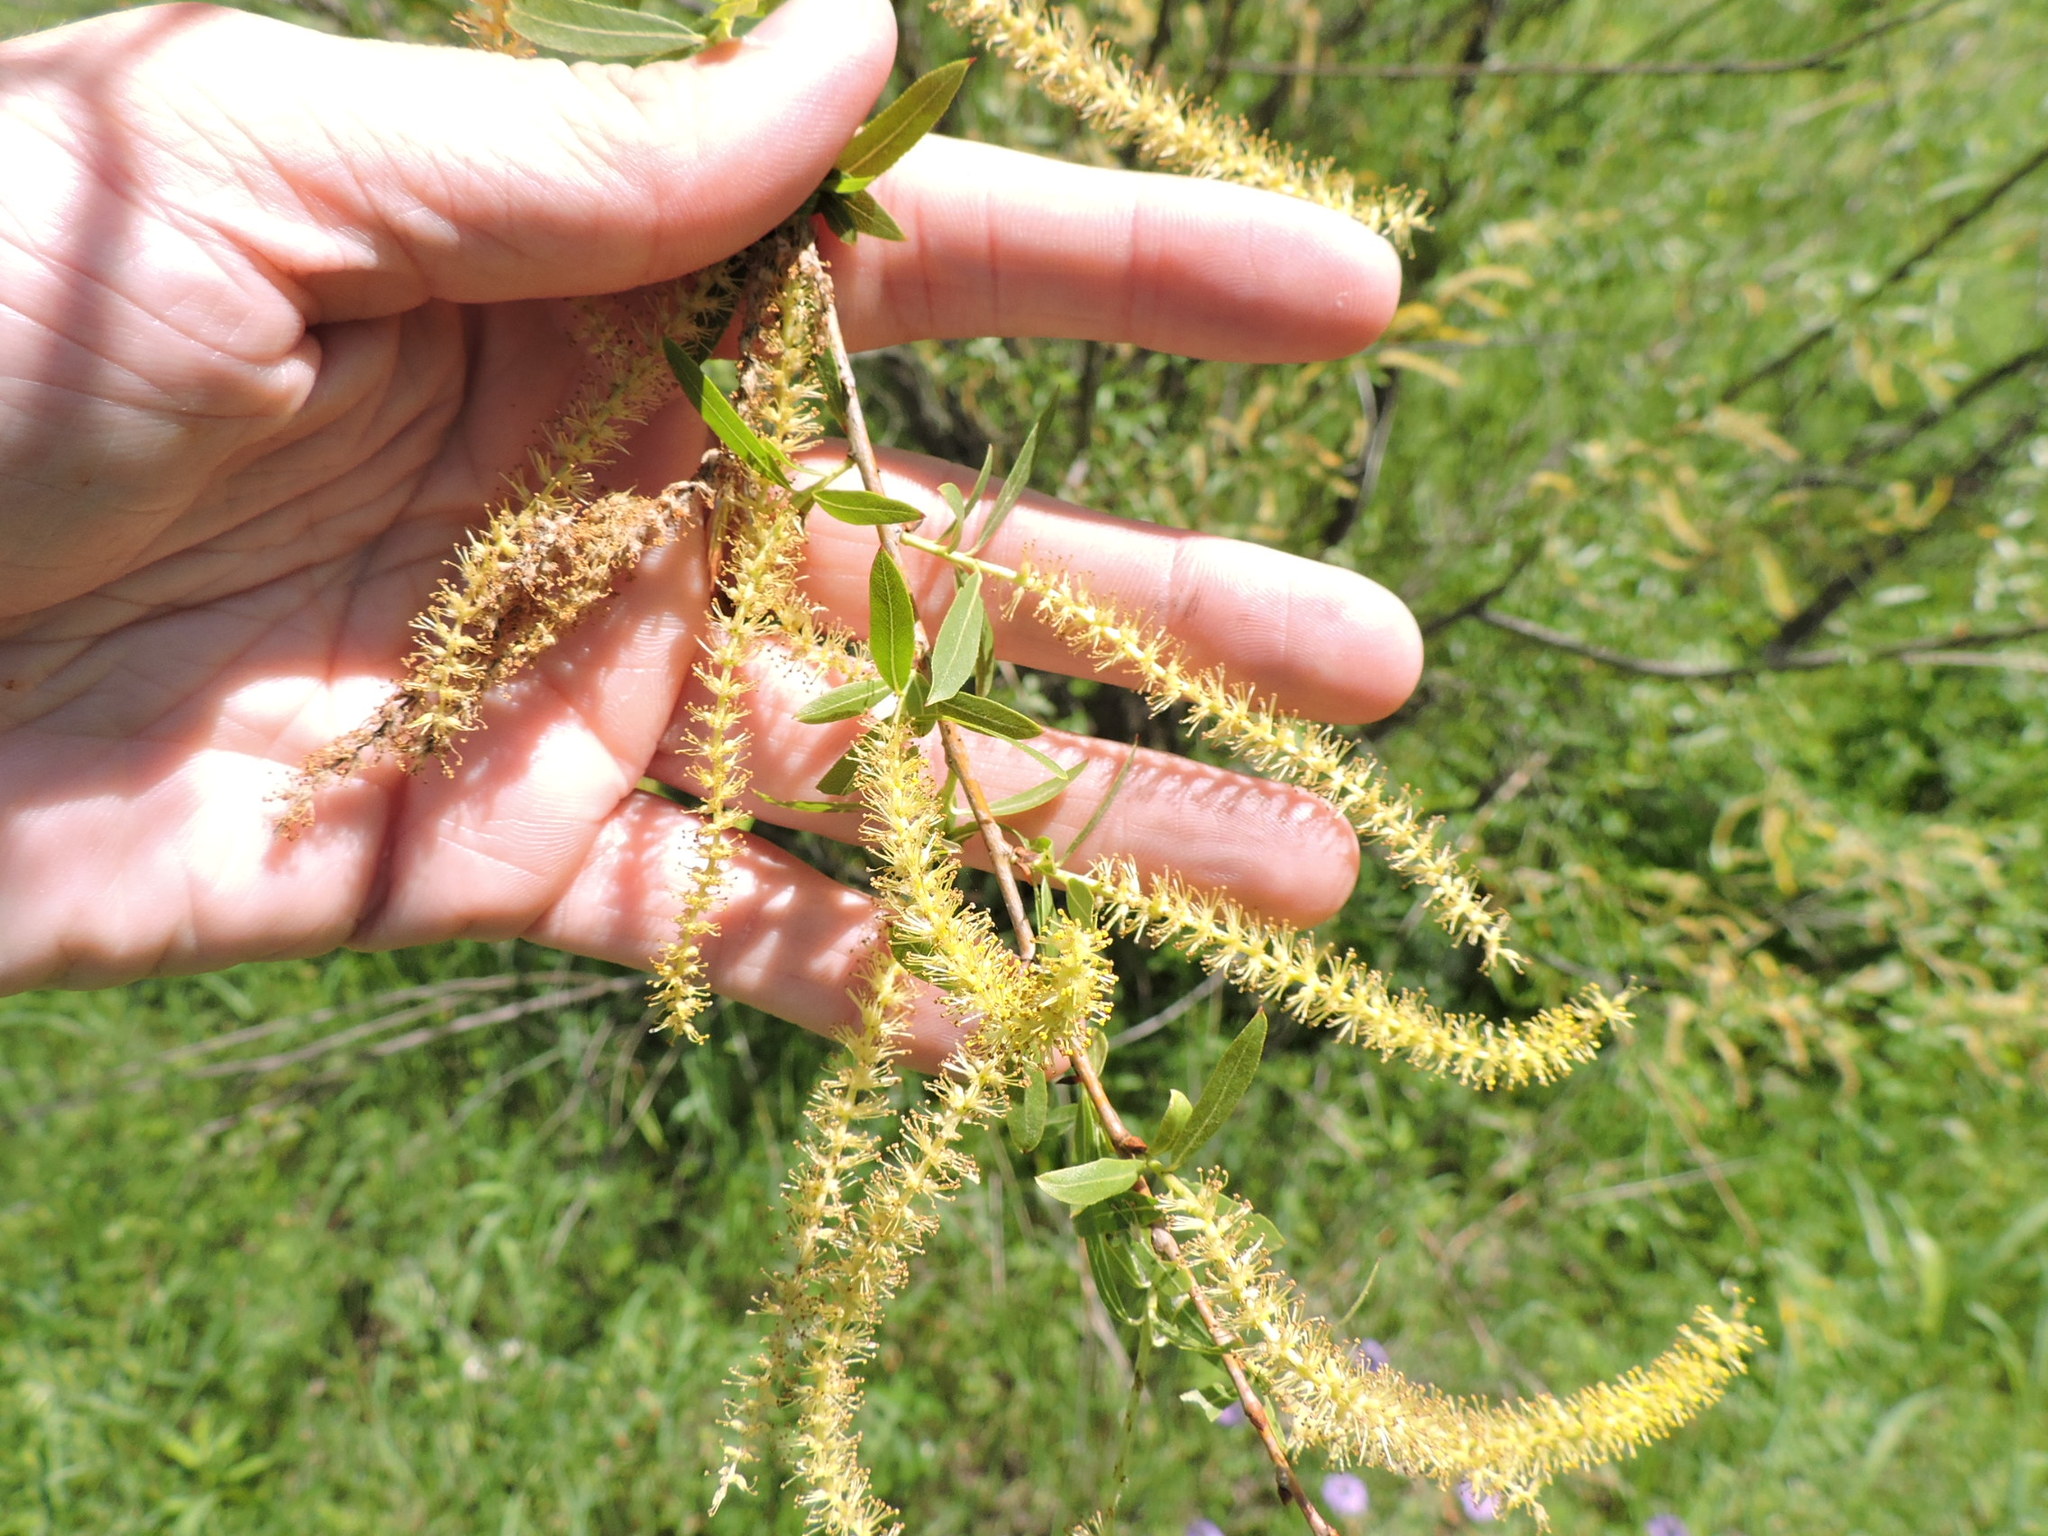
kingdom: Plantae
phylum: Tracheophyta
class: Magnoliopsida
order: Malpighiales
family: Salicaceae
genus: Salix
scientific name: Salix nigra
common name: Black willow
